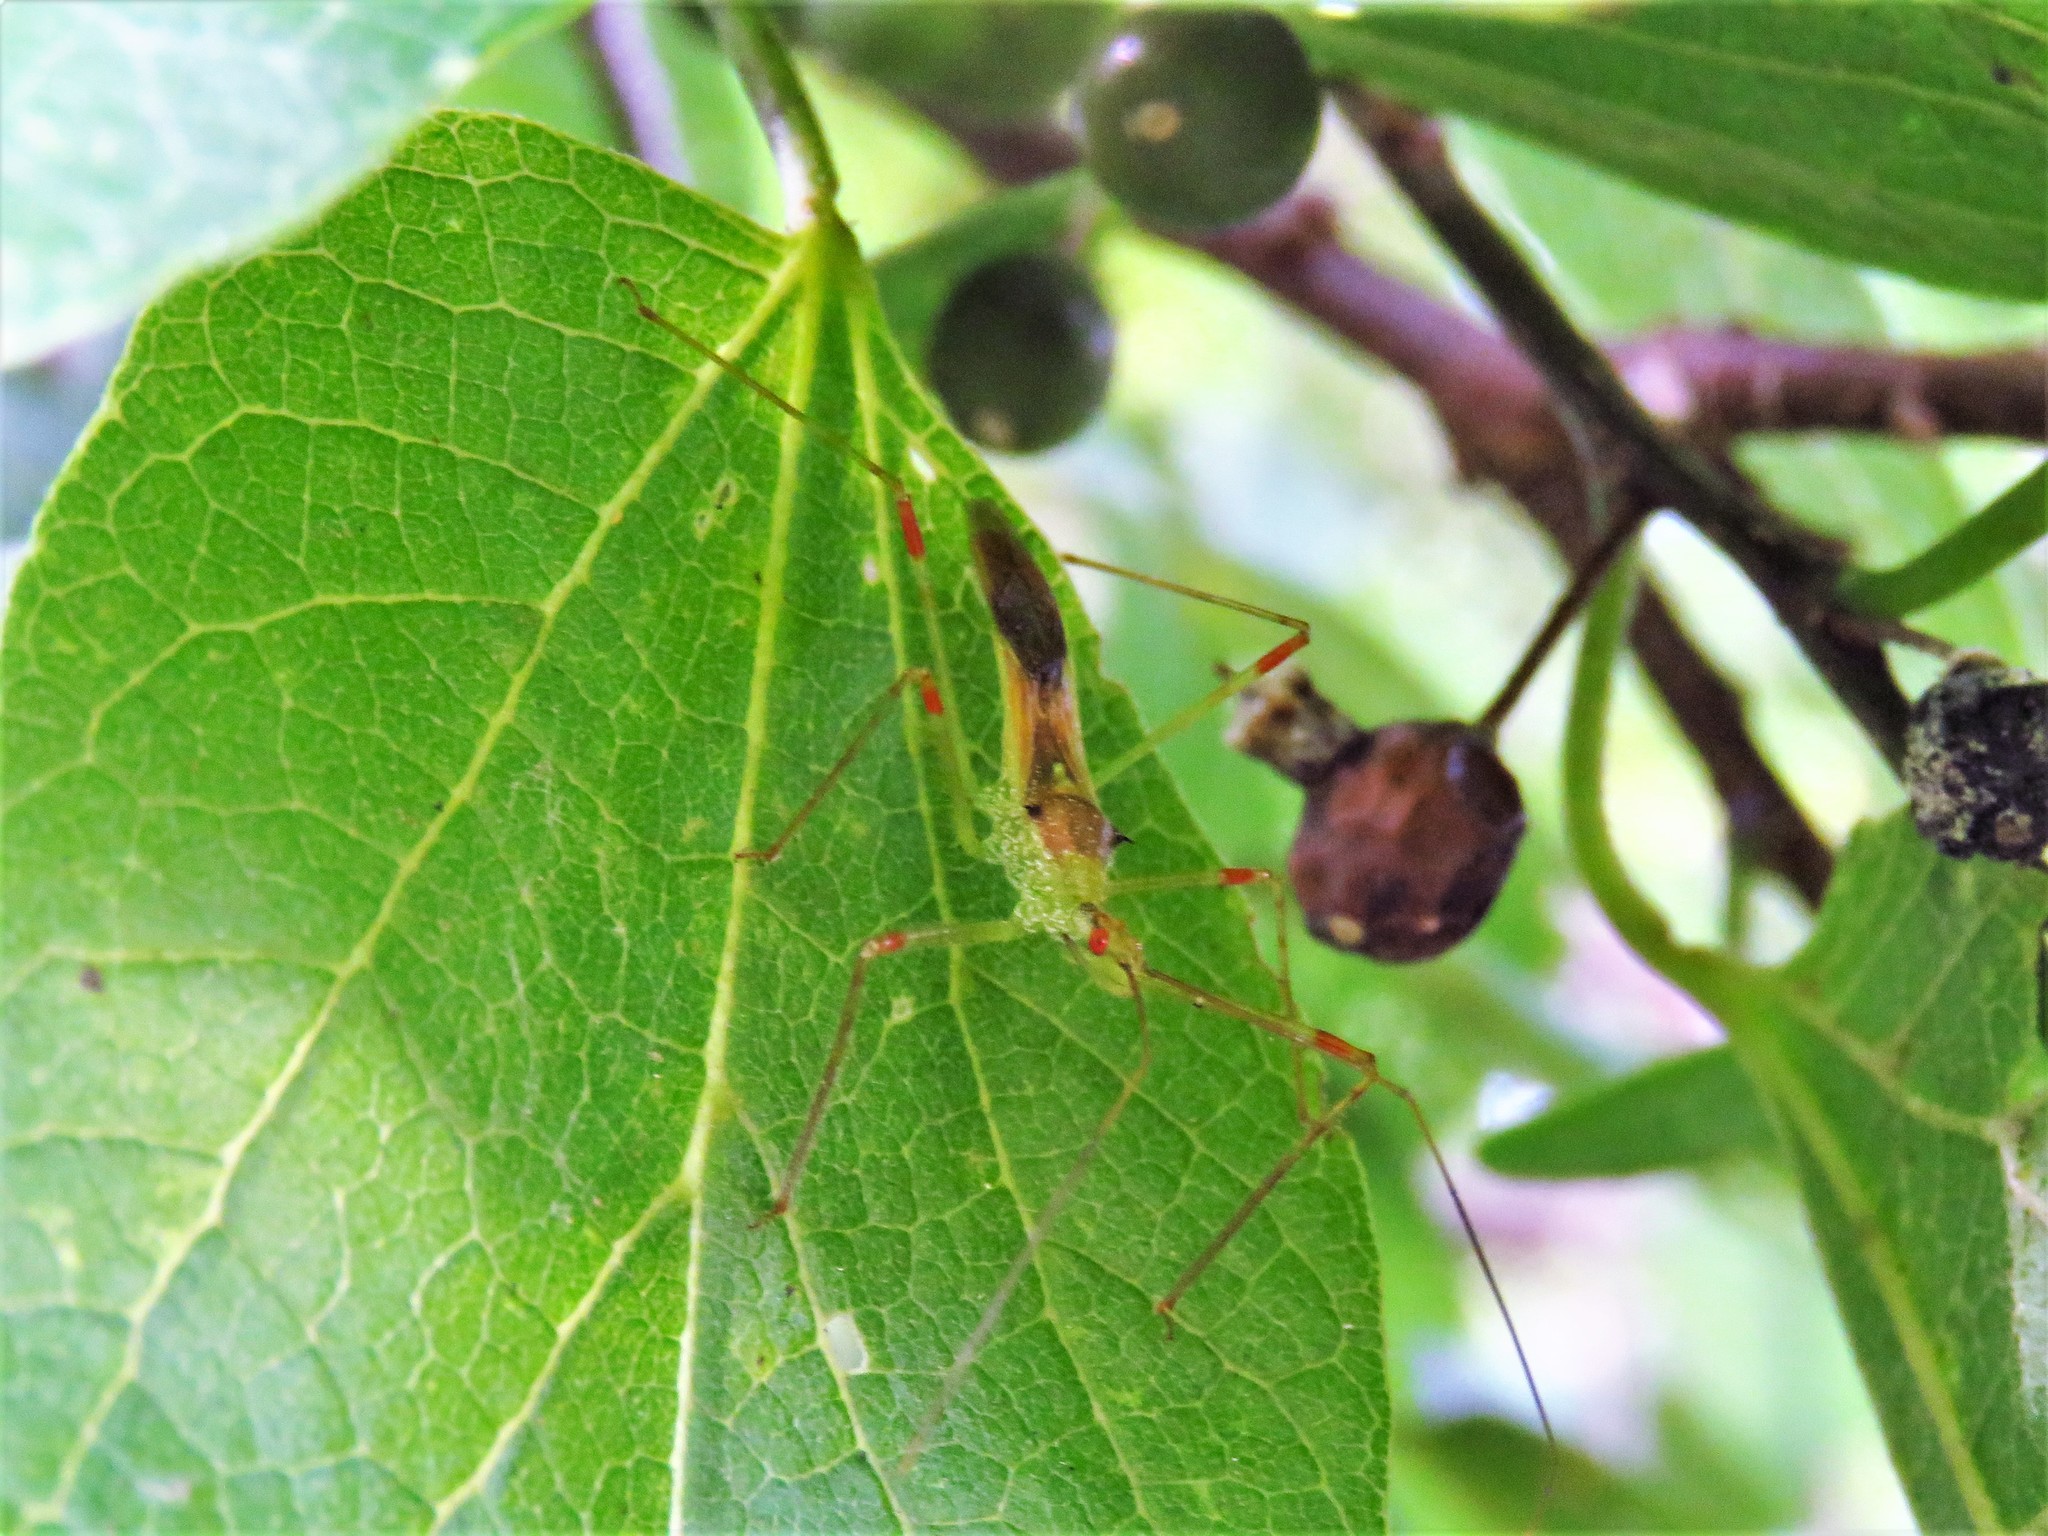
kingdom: Animalia
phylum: Arthropoda
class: Insecta
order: Hemiptera
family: Reduviidae
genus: Zelus
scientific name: Zelus luridus
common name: Pale green assassin bug
